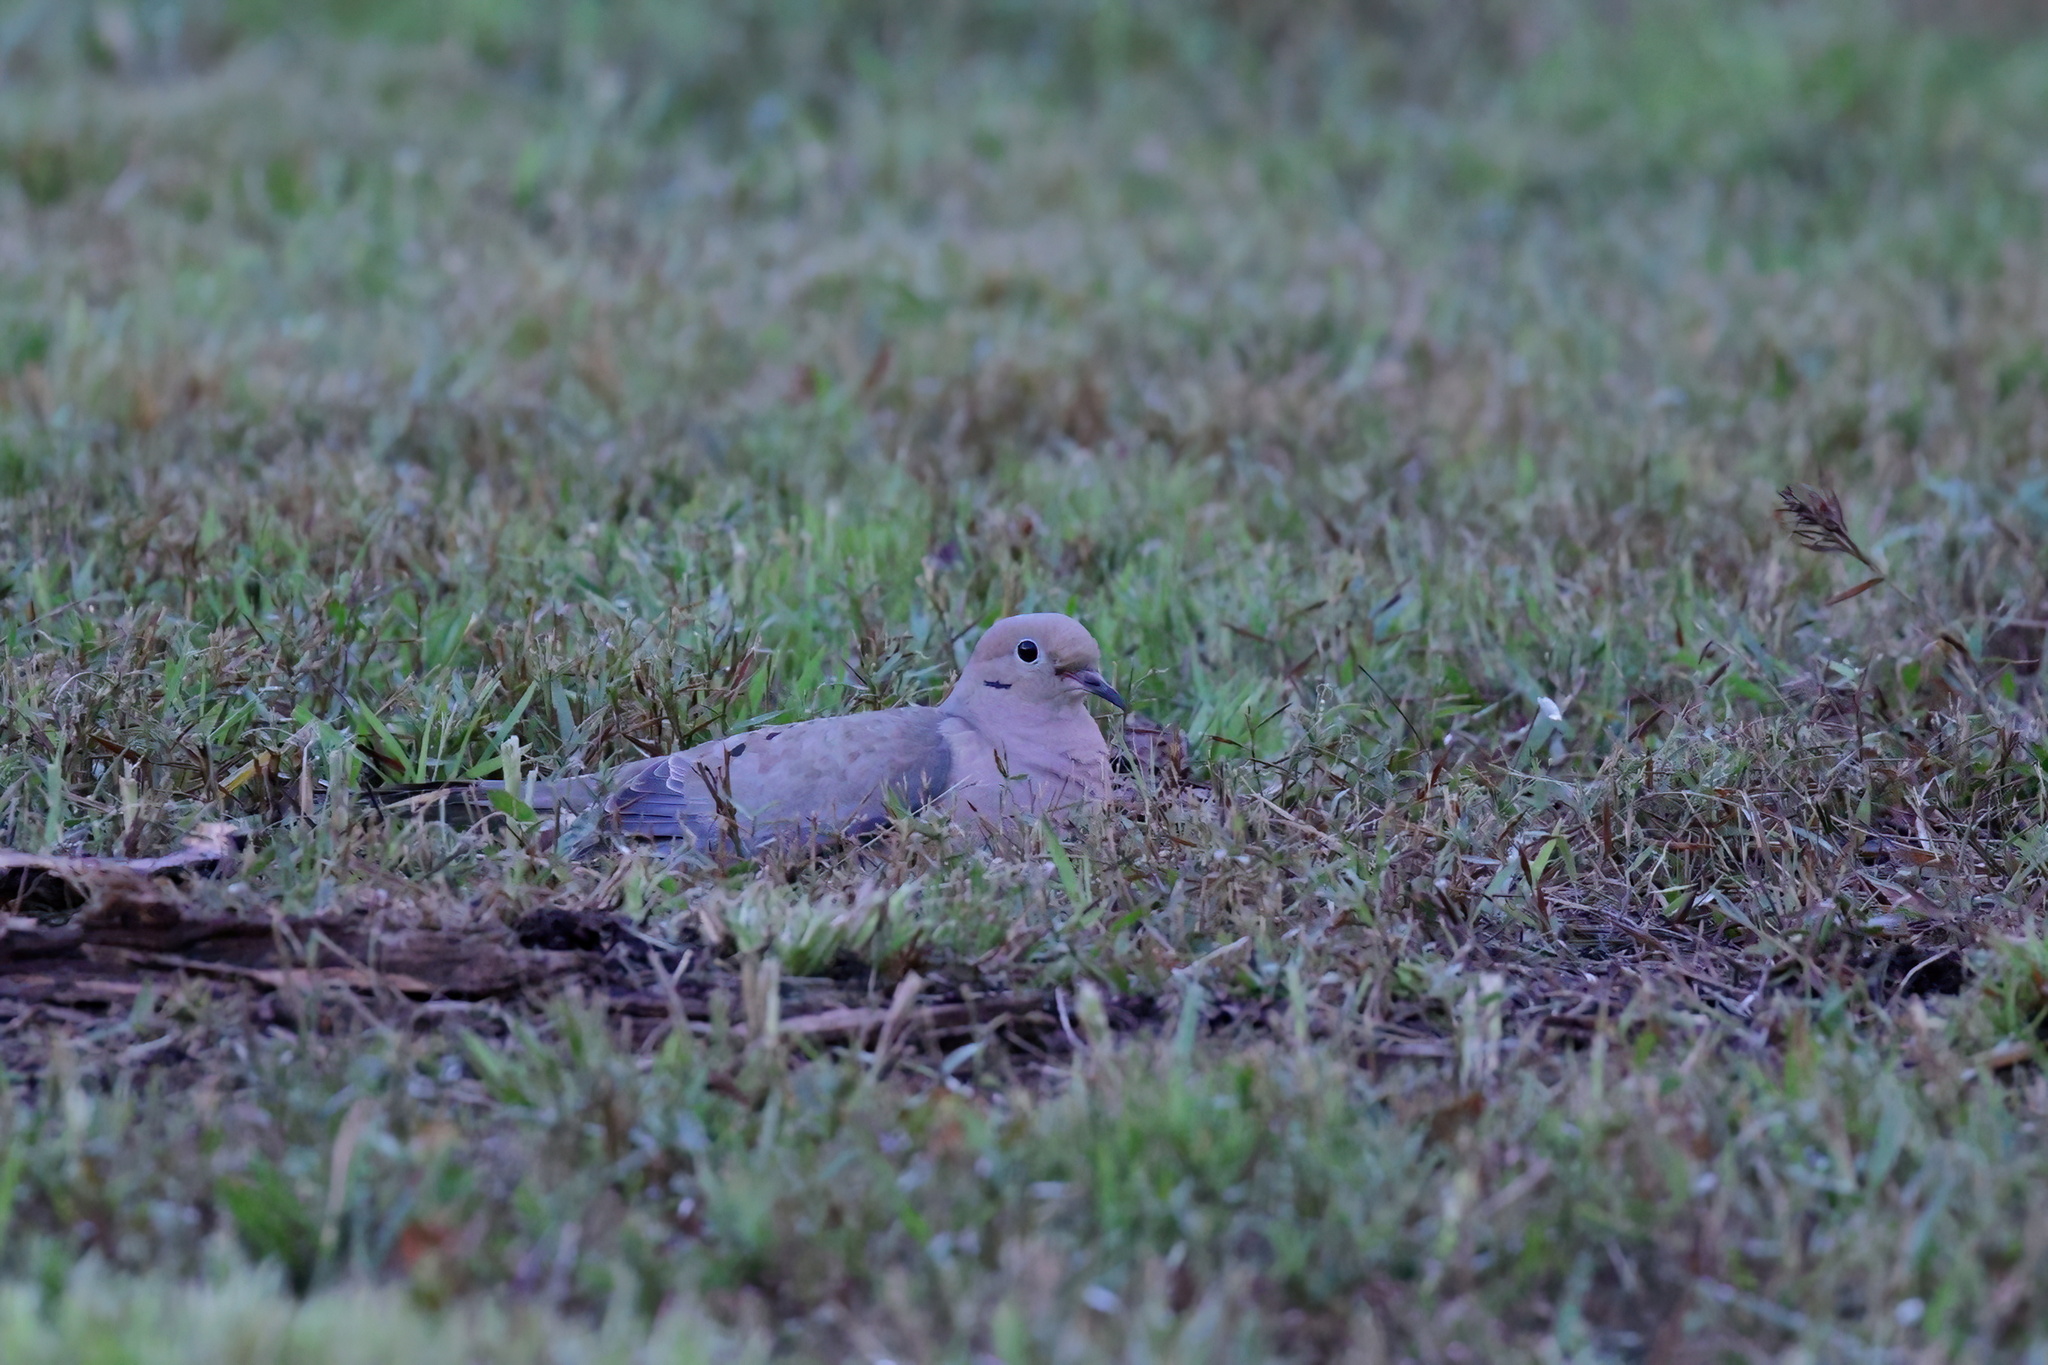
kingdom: Animalia
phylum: Chordata
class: Aves
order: Columbiformes
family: Columbidae
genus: Zenaida
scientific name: Zenaida macroura
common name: Mourning dove
